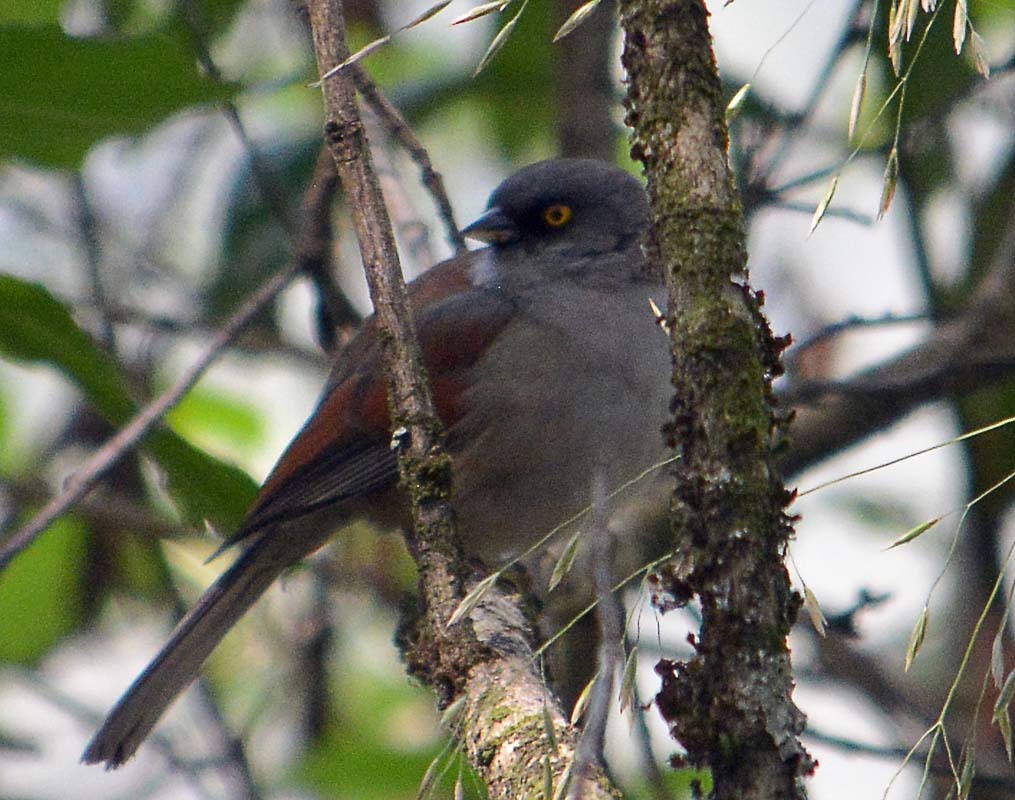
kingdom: Animalia
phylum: Chordata
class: Aves
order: Passeriformes
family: Passerellidae
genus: Junco
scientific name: Junco phaeonotus
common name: Yellow-eyed junco
